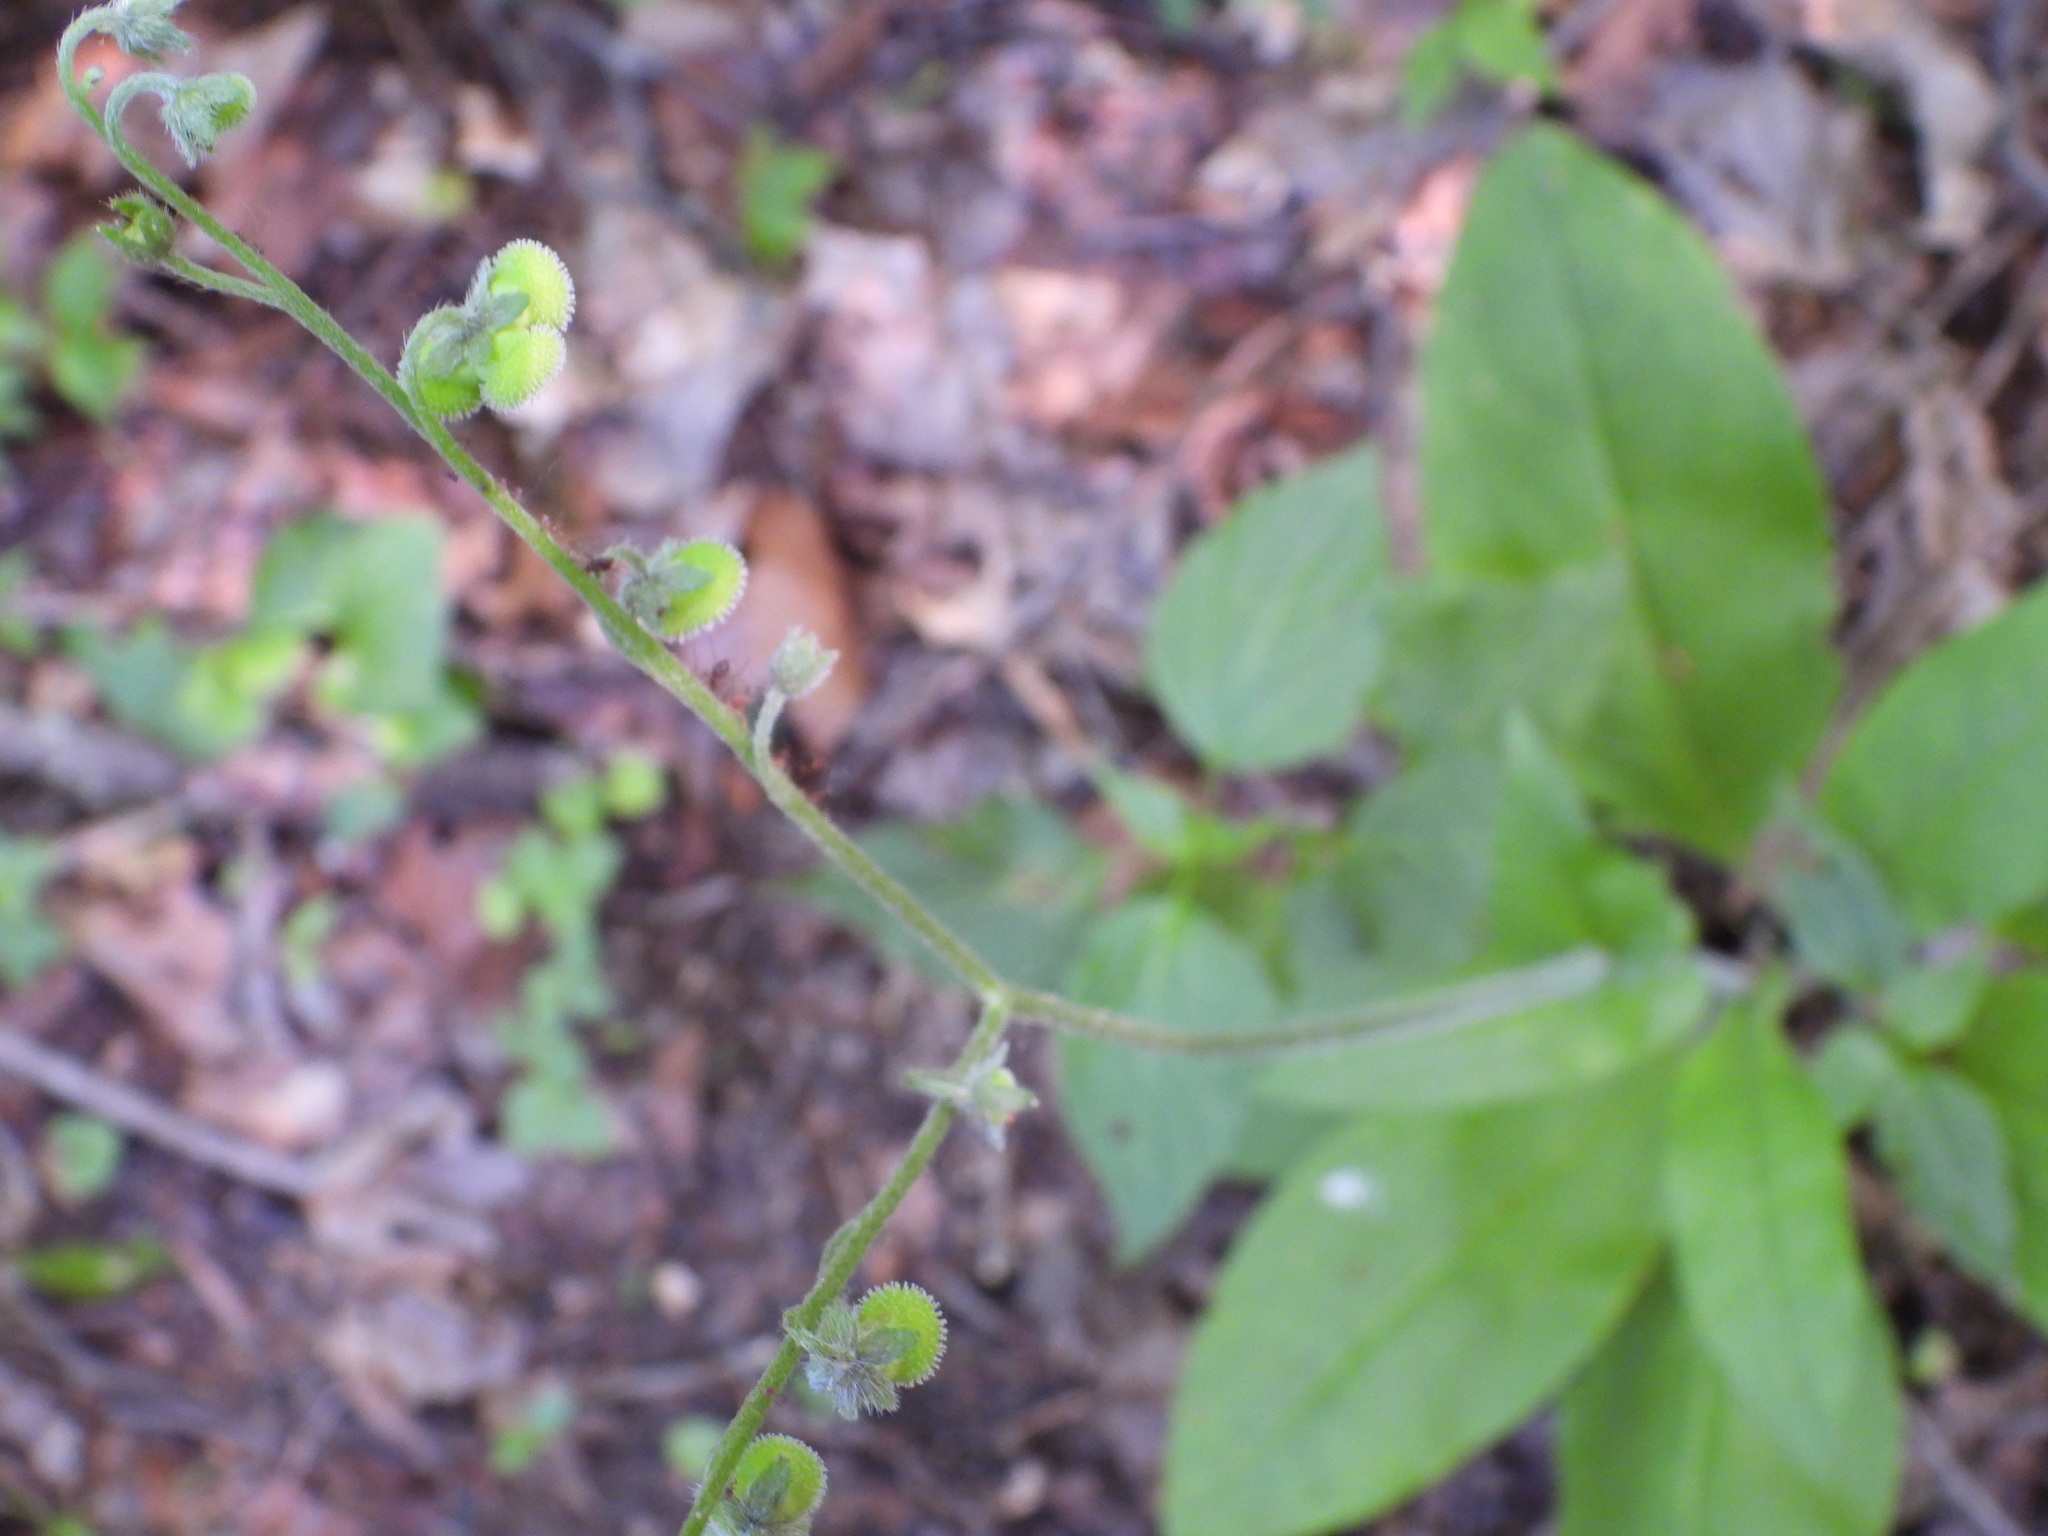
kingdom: Plantae
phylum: Tracheophyta
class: Magnoliopsida
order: Boraginales
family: Boraginaceae
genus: Andersonglossum
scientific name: Andersonglossum virginianum
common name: Wild comfrey
